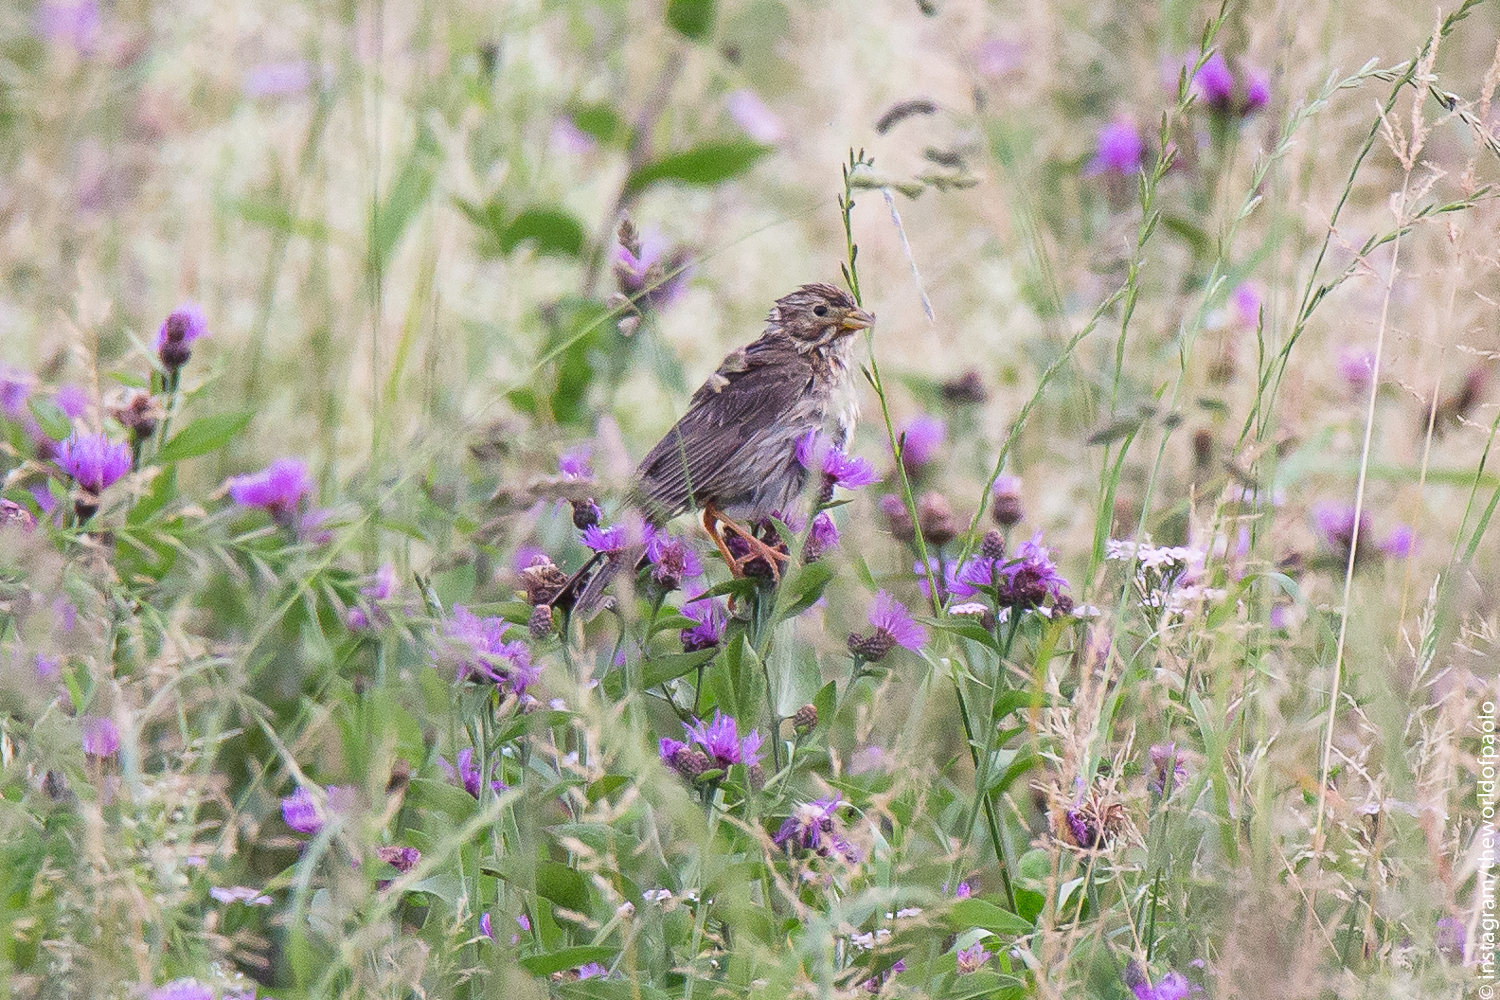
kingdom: Animalia
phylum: Chordata
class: Aves
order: Passeriformes
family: Emberizidae
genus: Emberiza
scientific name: Emberiza calandra
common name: Corn bunting
